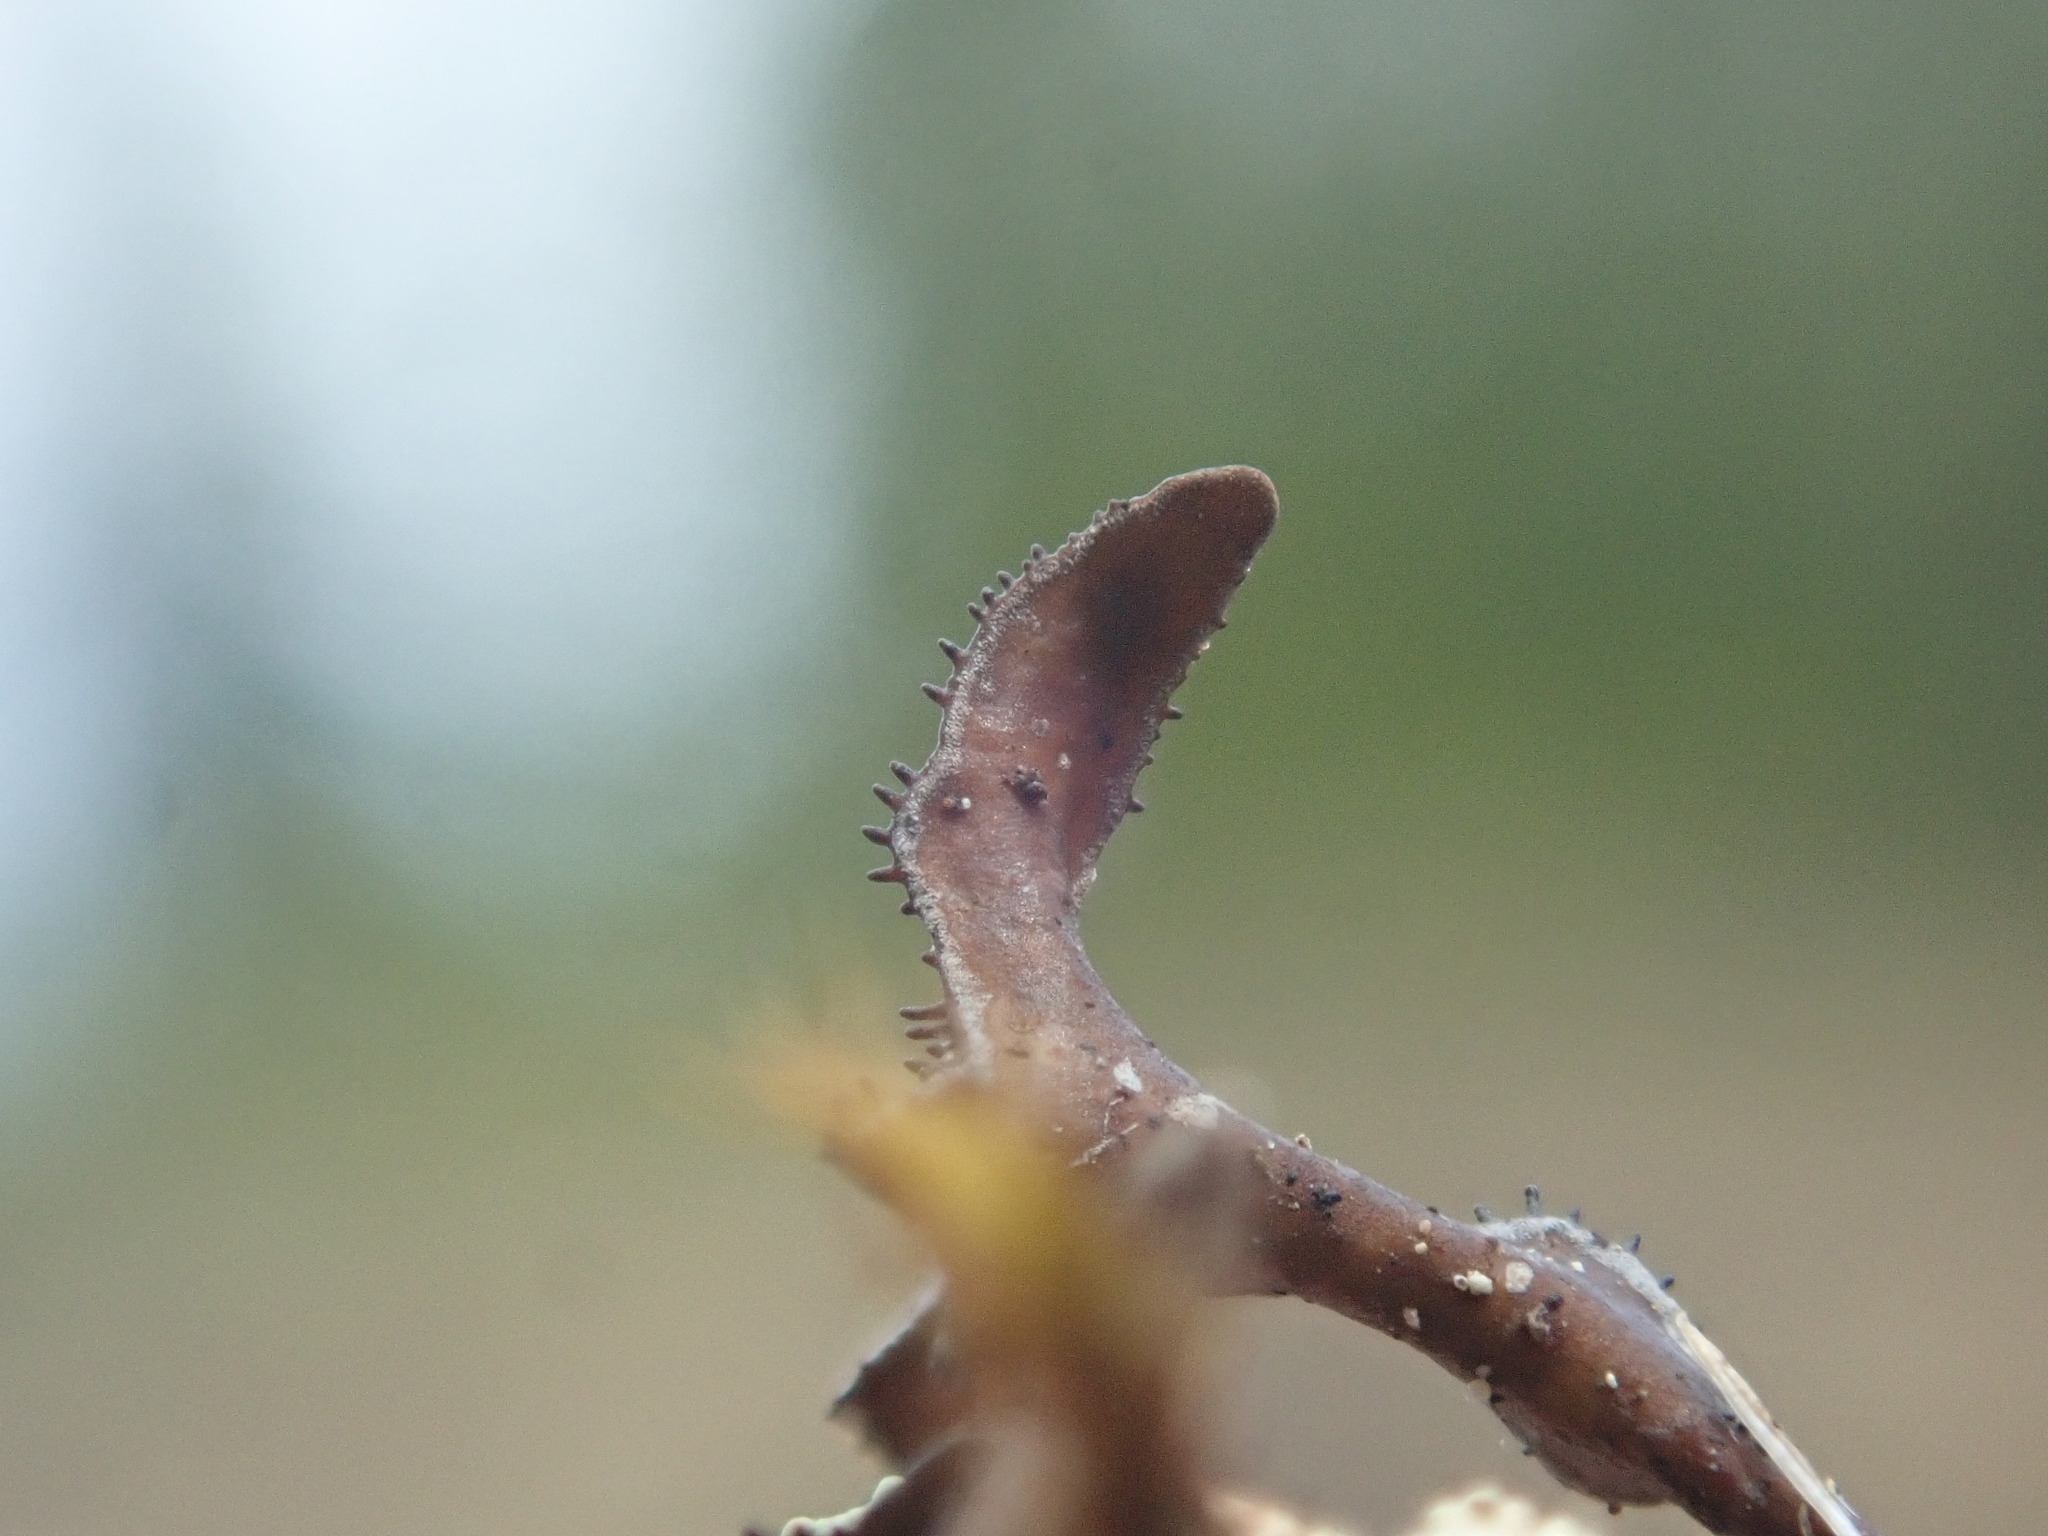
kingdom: Fungi
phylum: Ascomycota
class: Lecanoromycetes
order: Lecanorales
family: Parmeliaceae
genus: Cetraria
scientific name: Cetraria ericetorum
